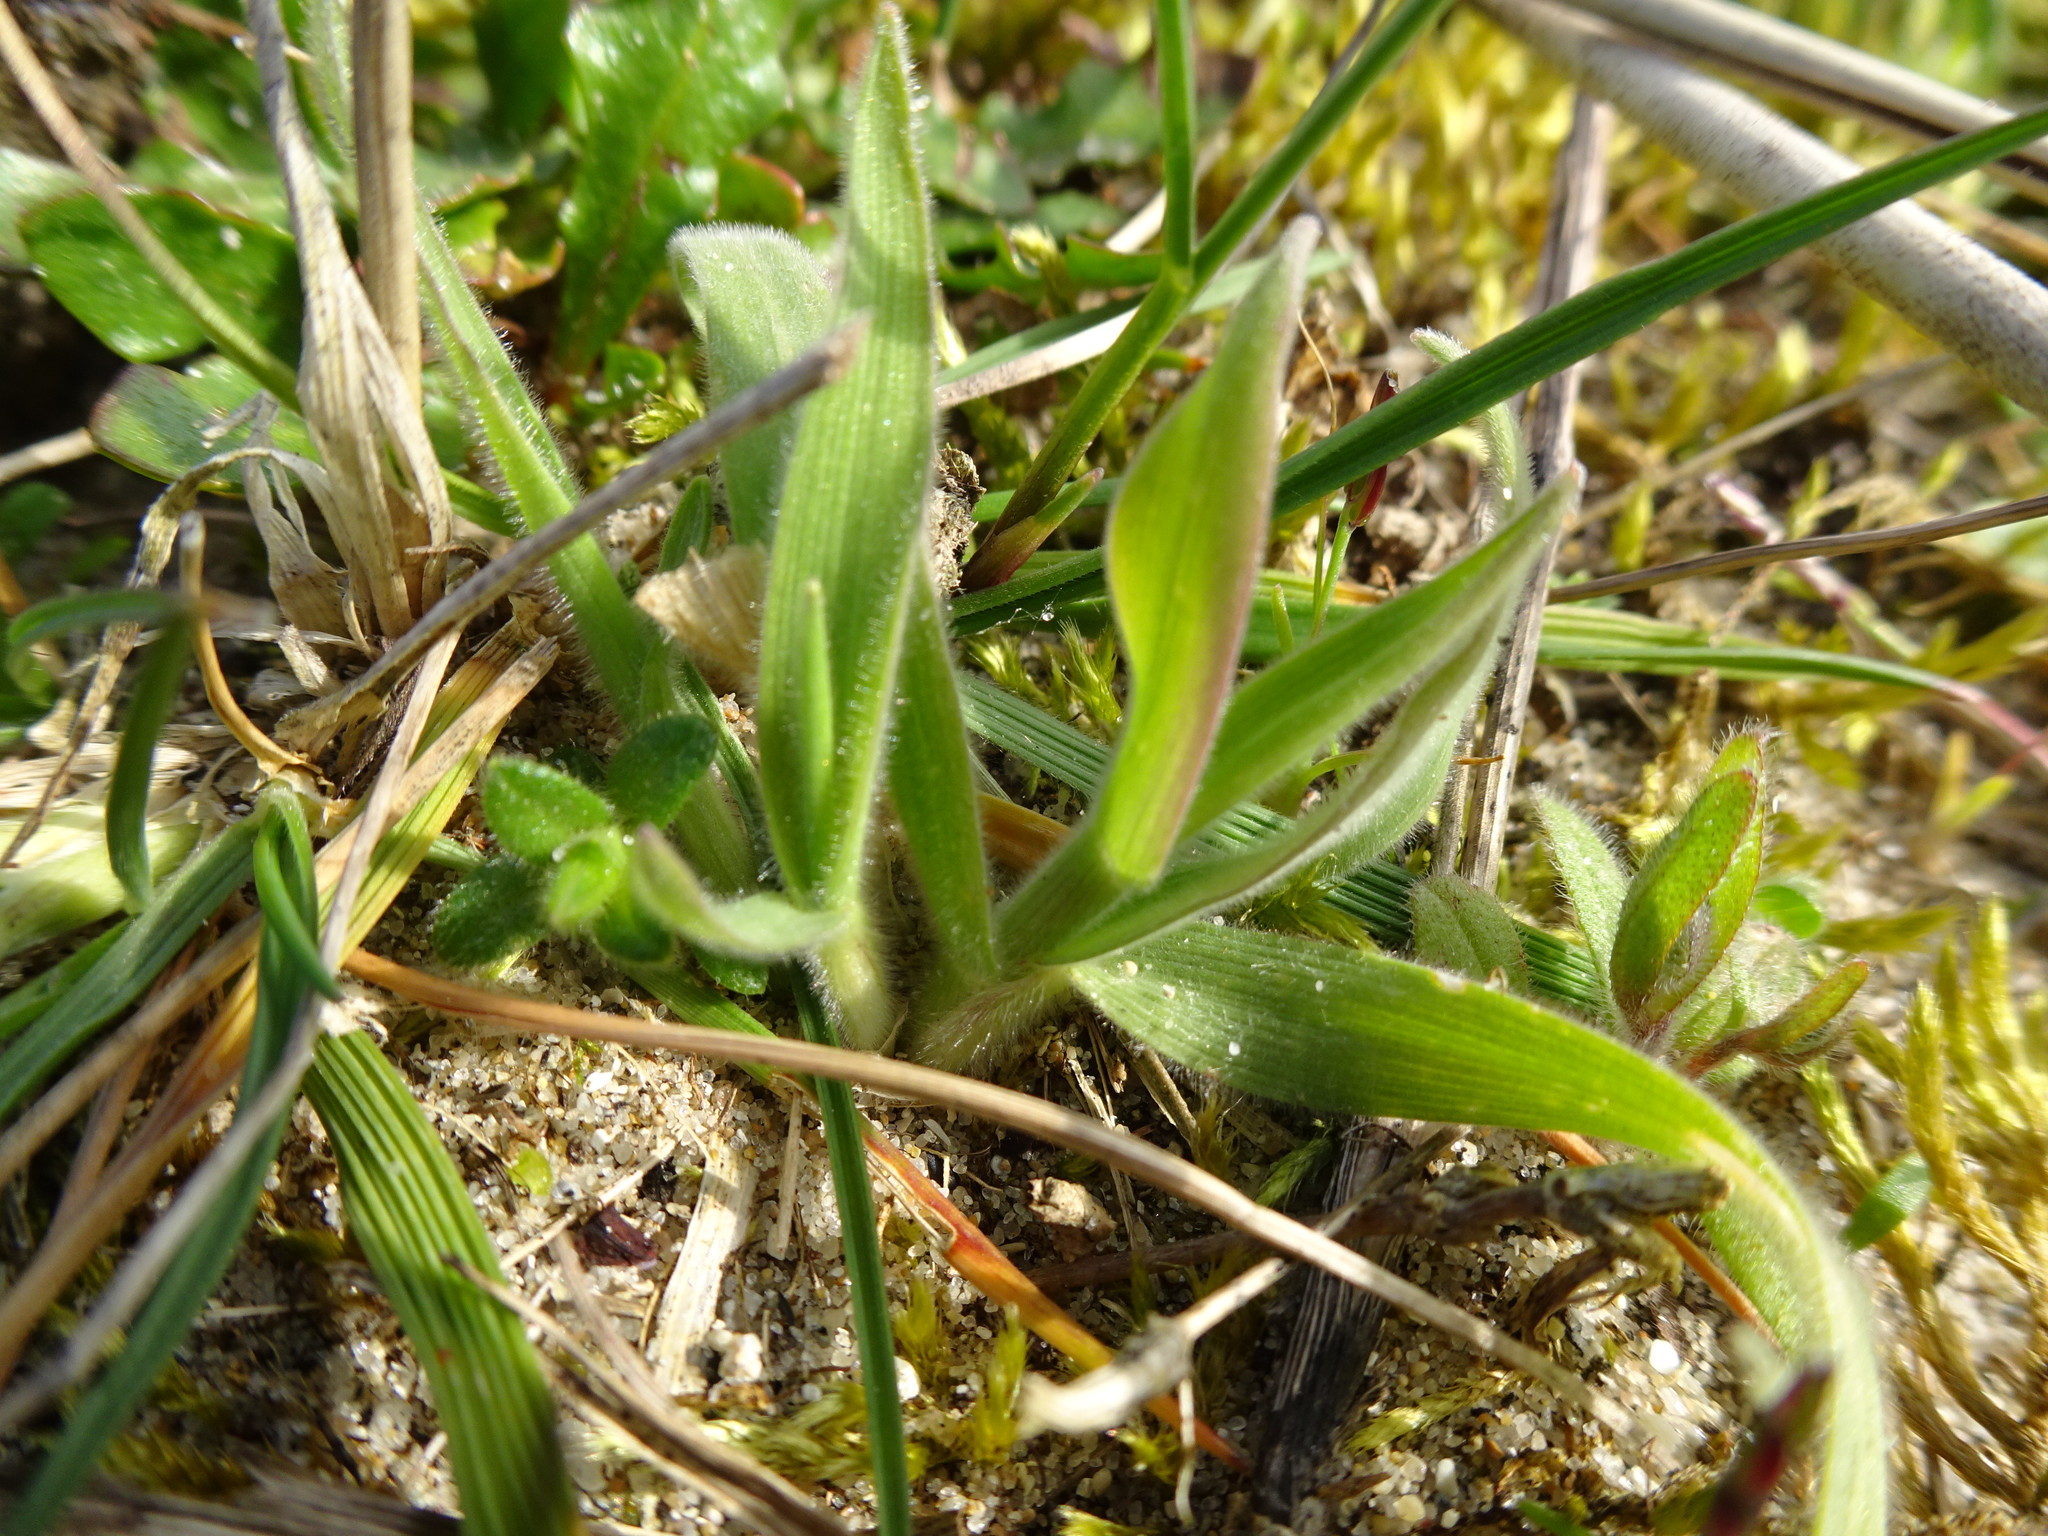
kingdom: Plantae
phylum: Tracheophyta
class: Liliopsida
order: Poales
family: Poaceae
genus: Lagurus
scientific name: Lagurus ovatus
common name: Hare's-tail
